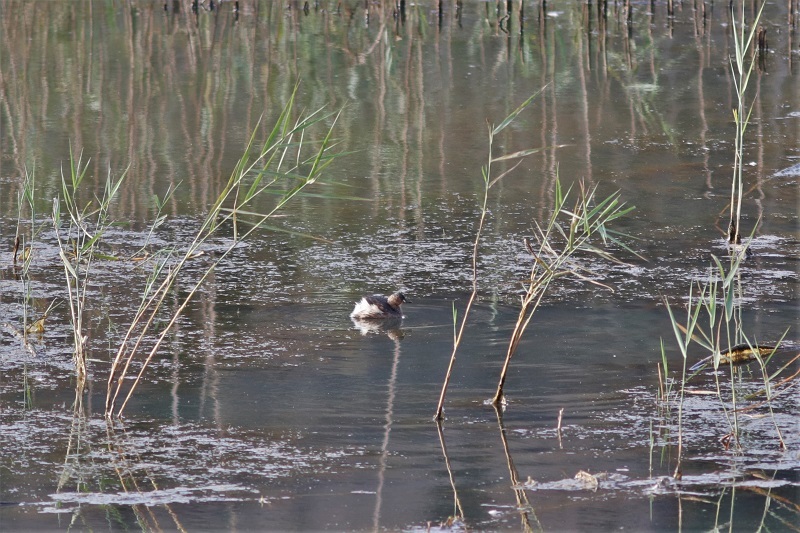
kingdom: Animalia
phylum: Chordata
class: Aves
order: Podicipediformes
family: Podicipedidae
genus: Tachybaptus
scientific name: Tachybaptus ruficollis
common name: Little grebe
